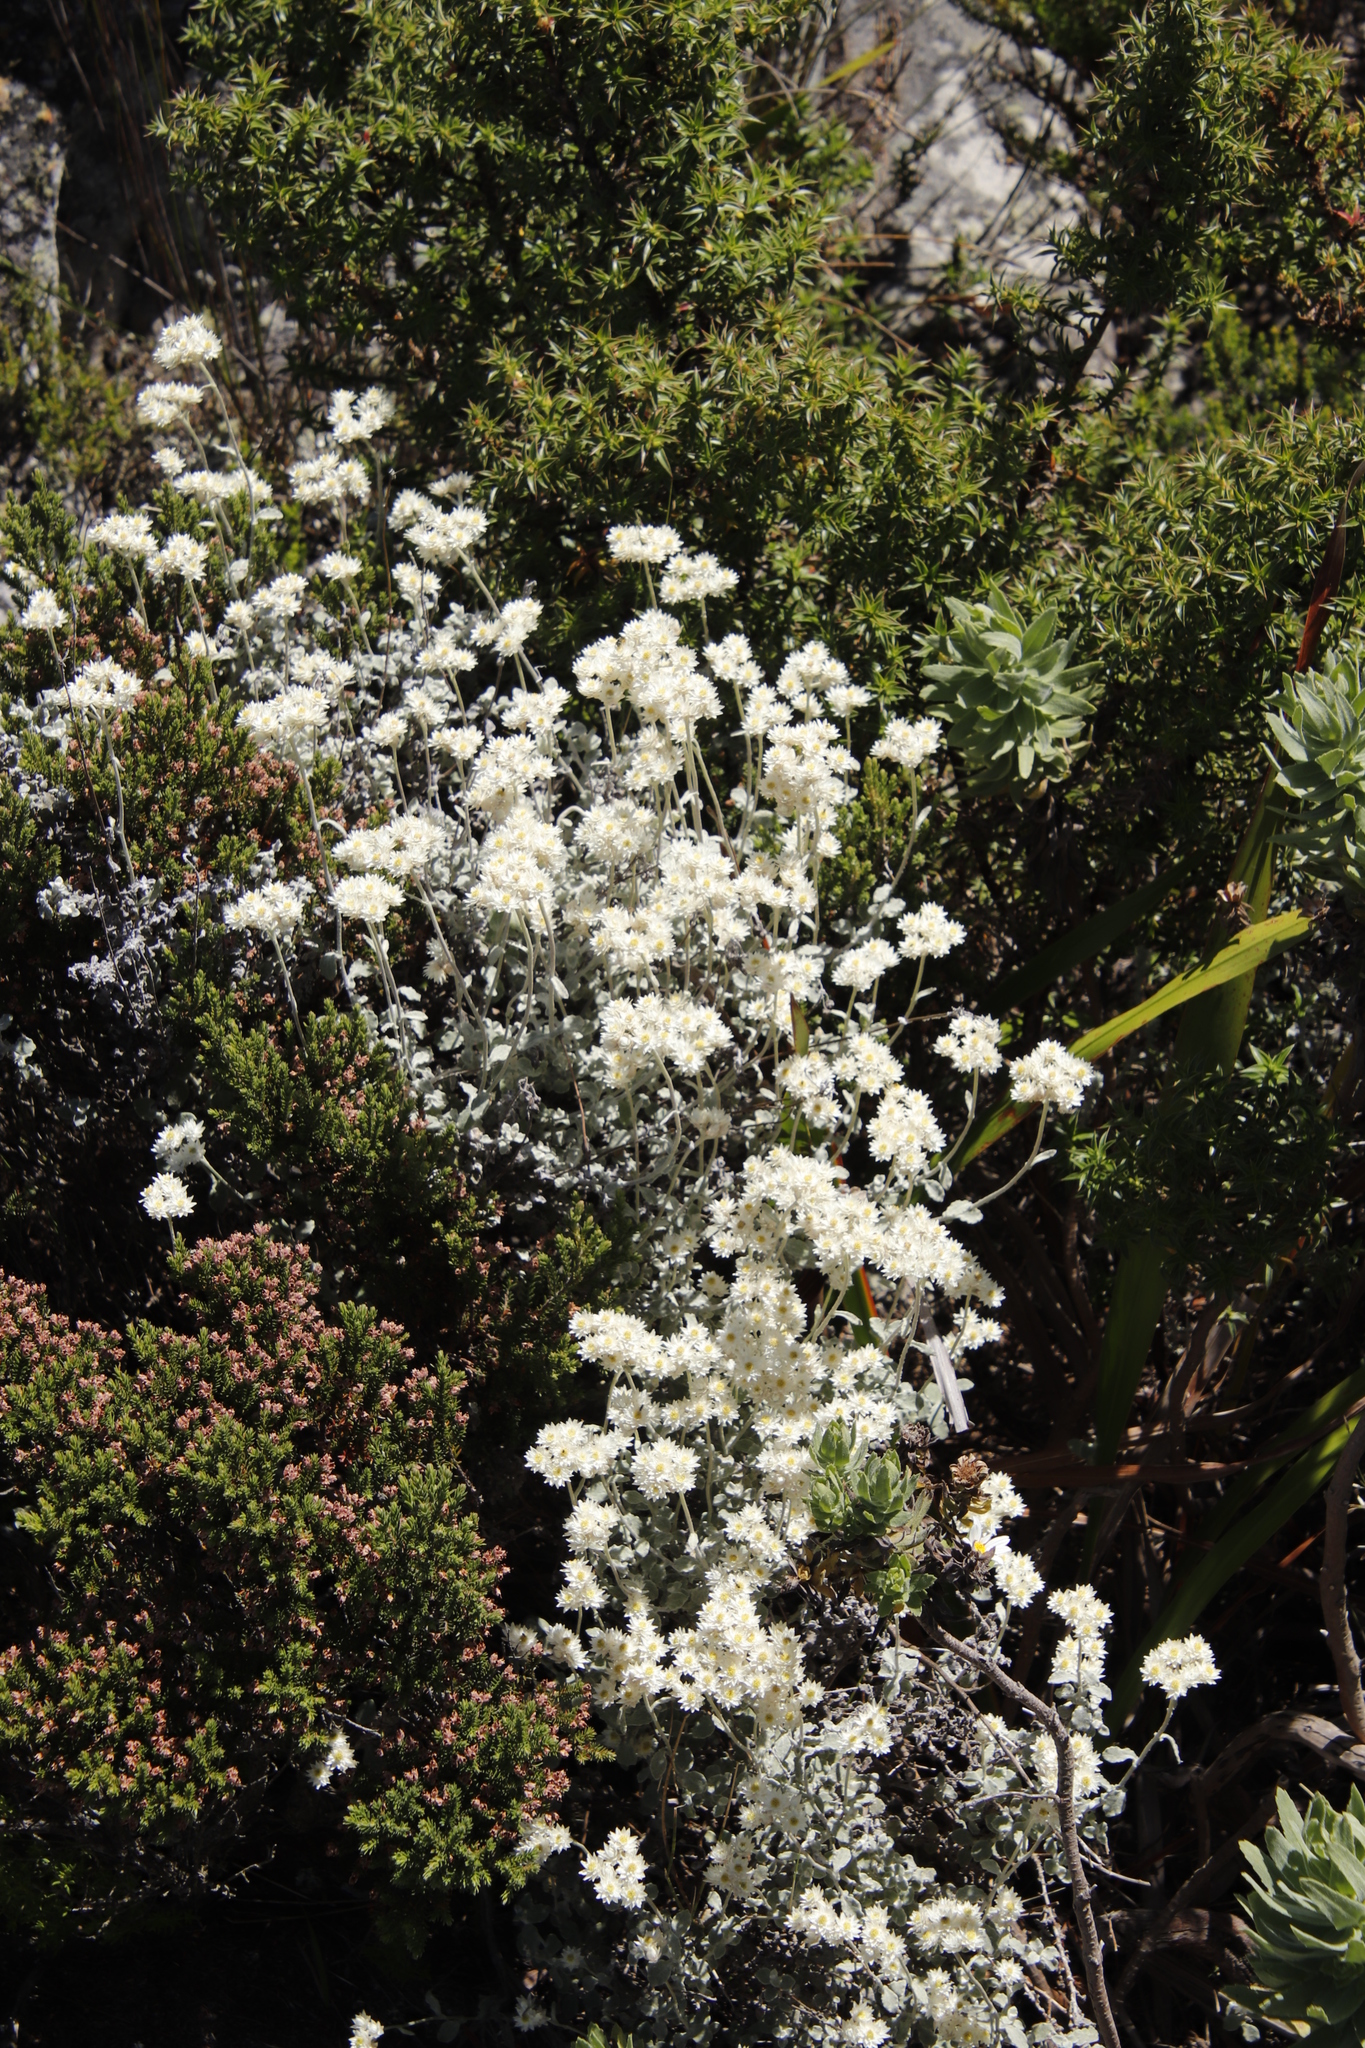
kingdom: Plantae
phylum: Tracheophyta
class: Magnoliopsida
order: Asterales
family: Asteraceae
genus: Helichrysum
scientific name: Helichrysum pandurifolium
